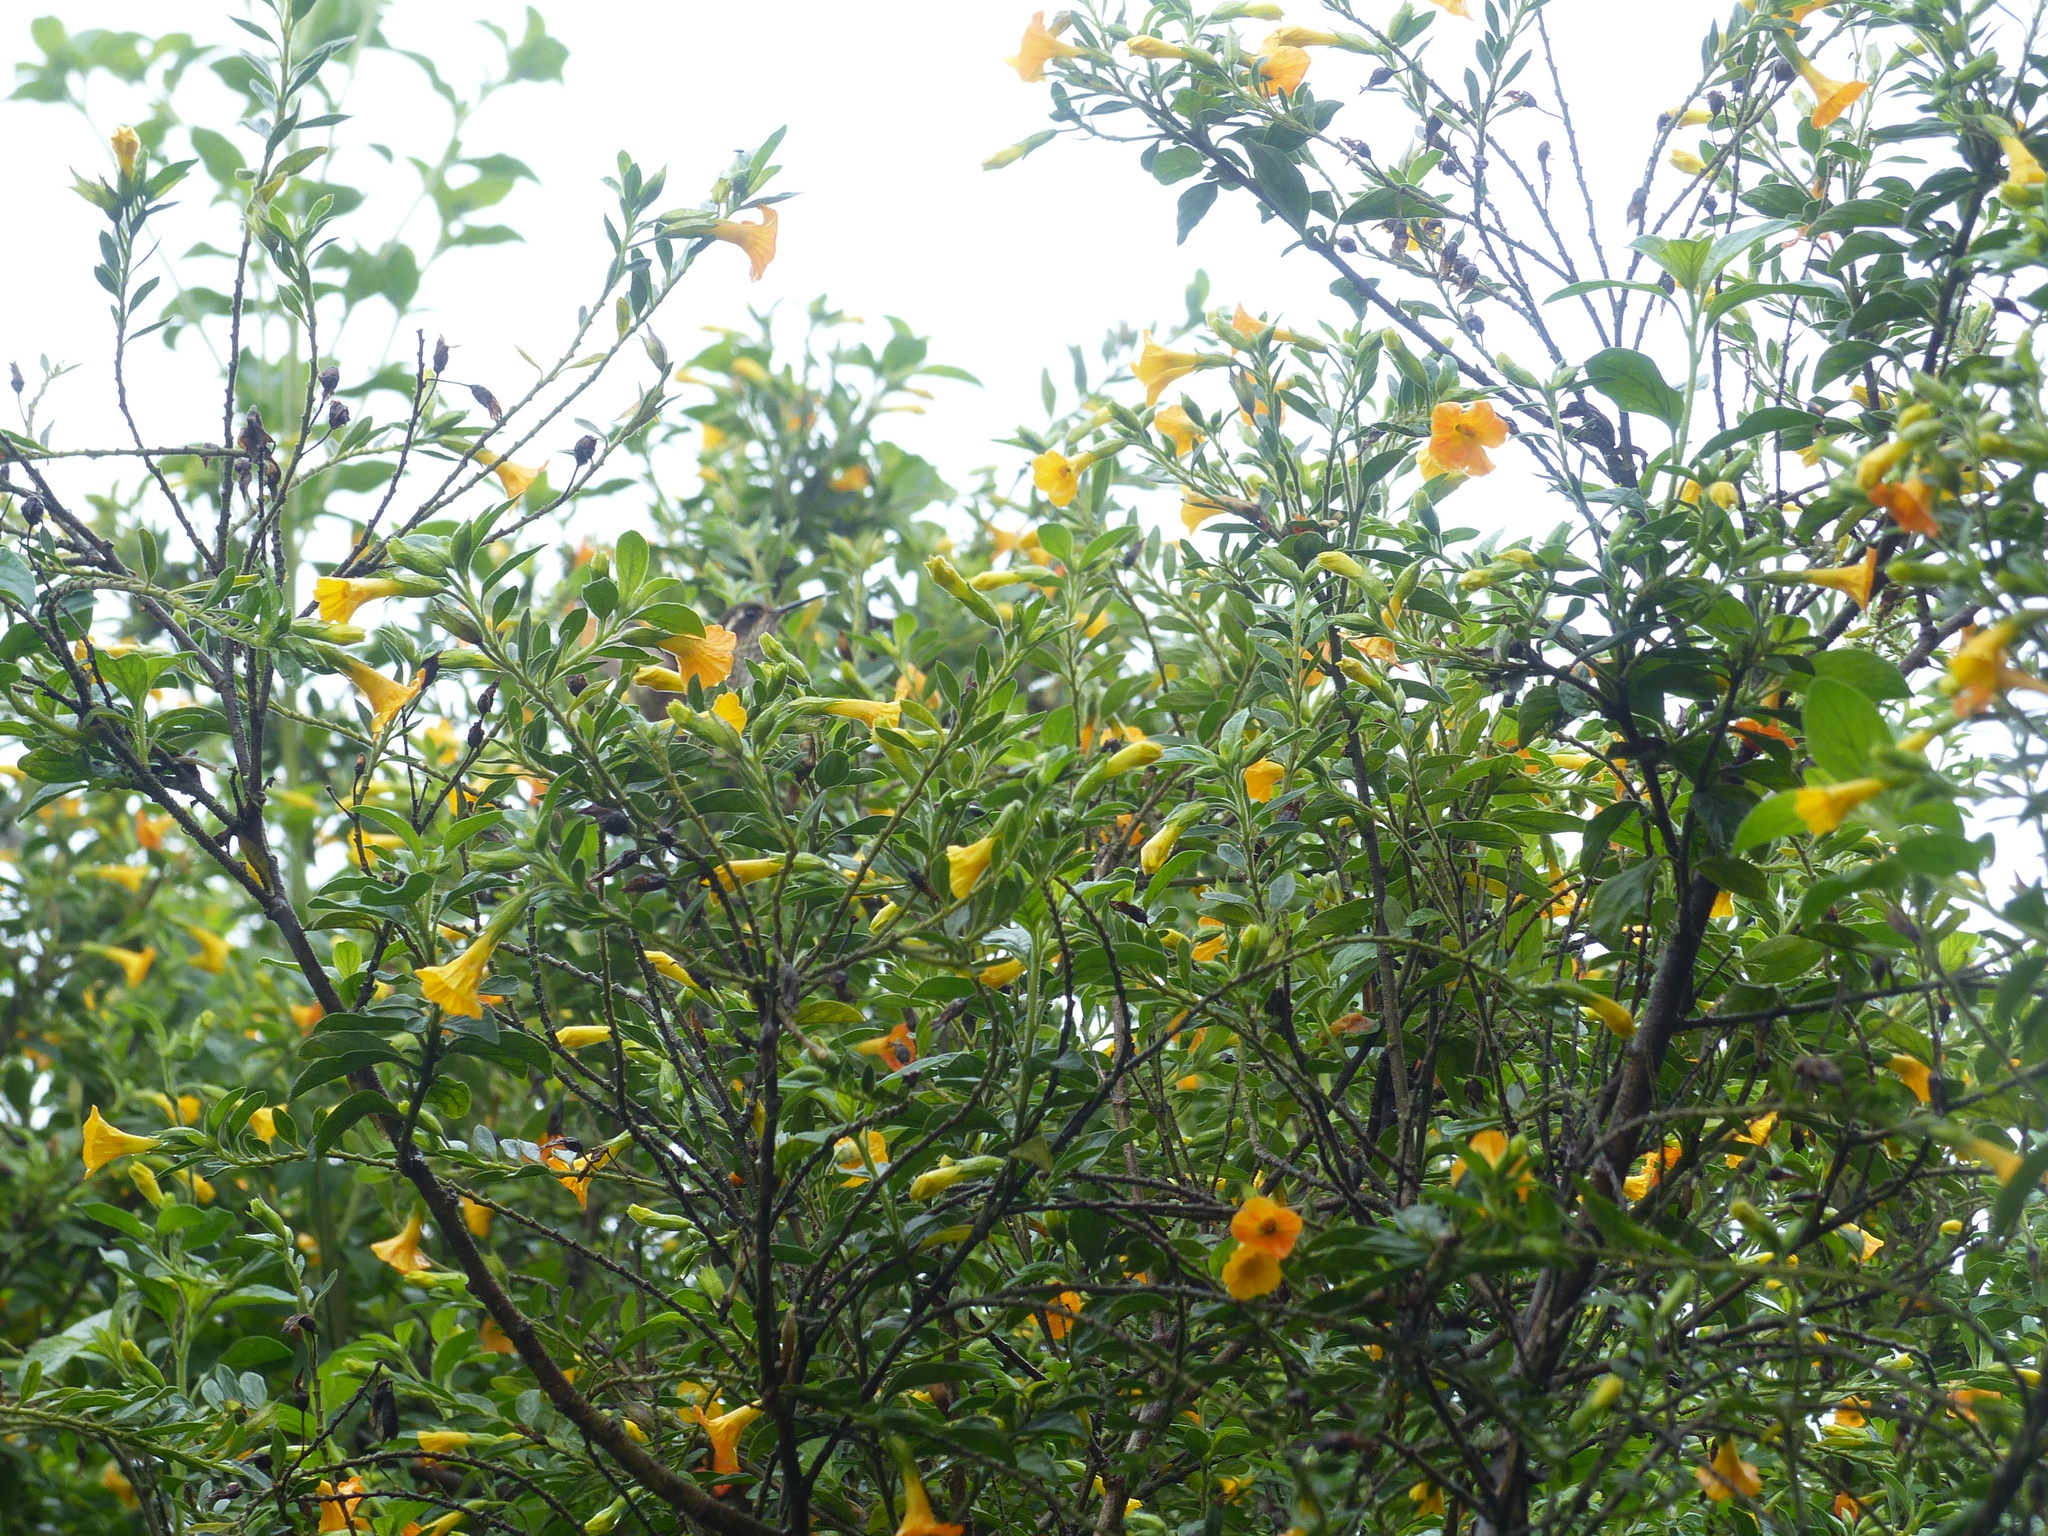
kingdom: Plantae
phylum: Tracheophyta
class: Magnoliopsida
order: Solanales
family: Solanaceae
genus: Streptosolen
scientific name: Streptosolen jamesonii
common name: Marmalade bush
